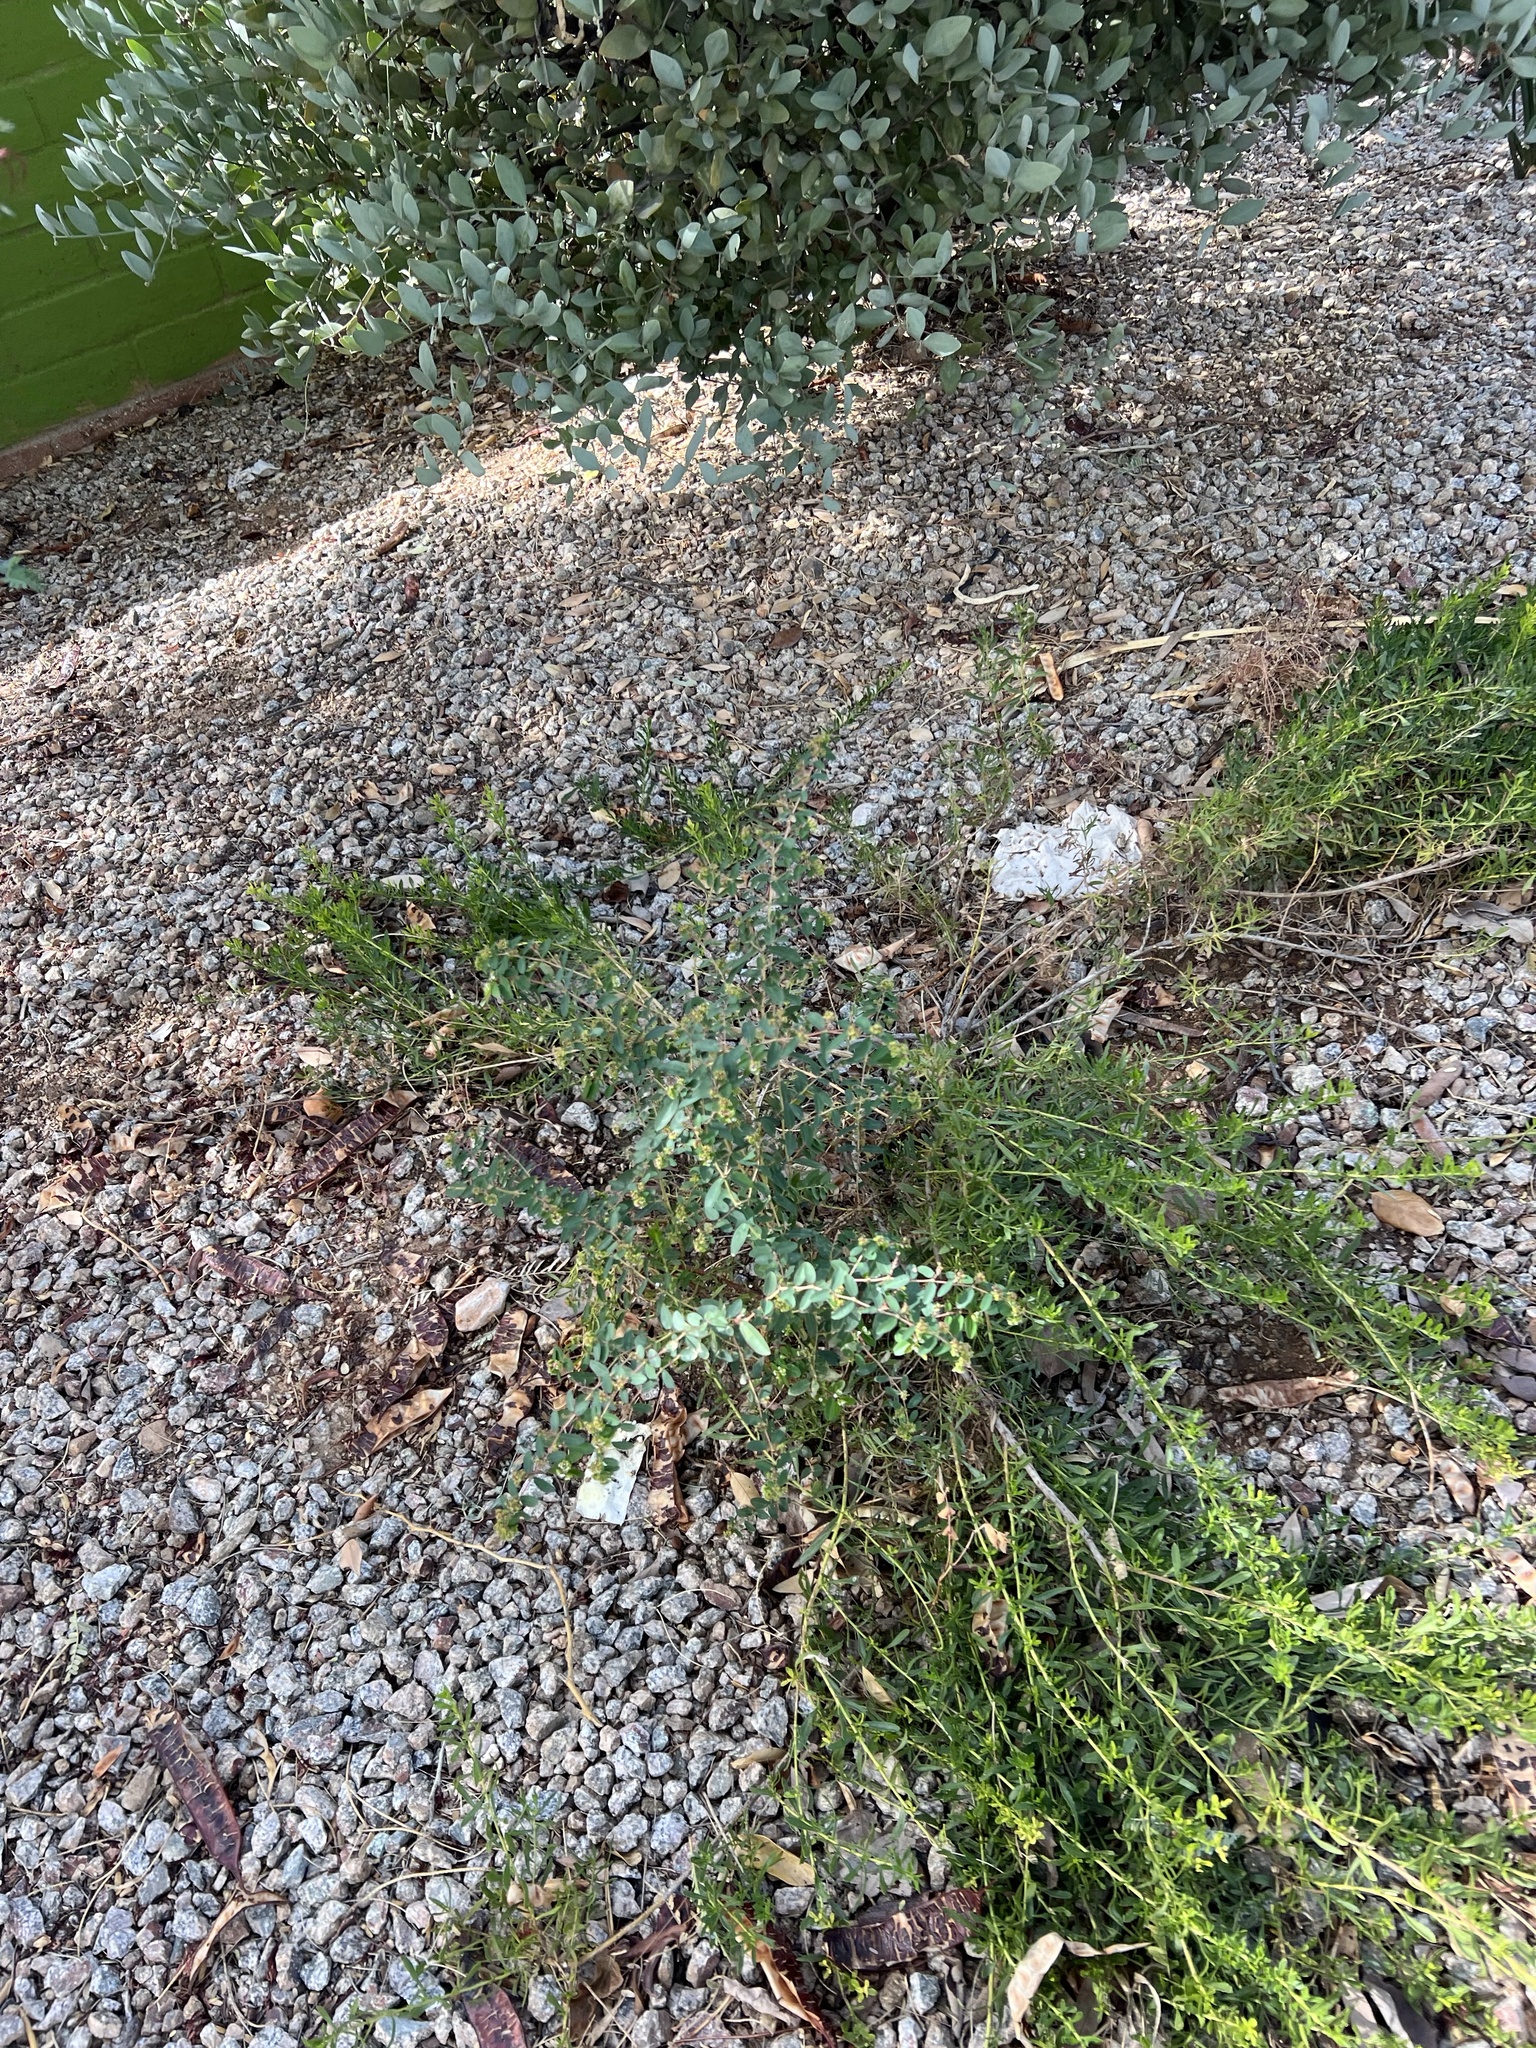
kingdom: Plantae
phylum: Tracheophyta
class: Magnoliopsida
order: Malpighiales
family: Euphorbiaceae
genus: Euphorbia
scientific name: Euphorbia hypericifolia
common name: Graceful sandmat
